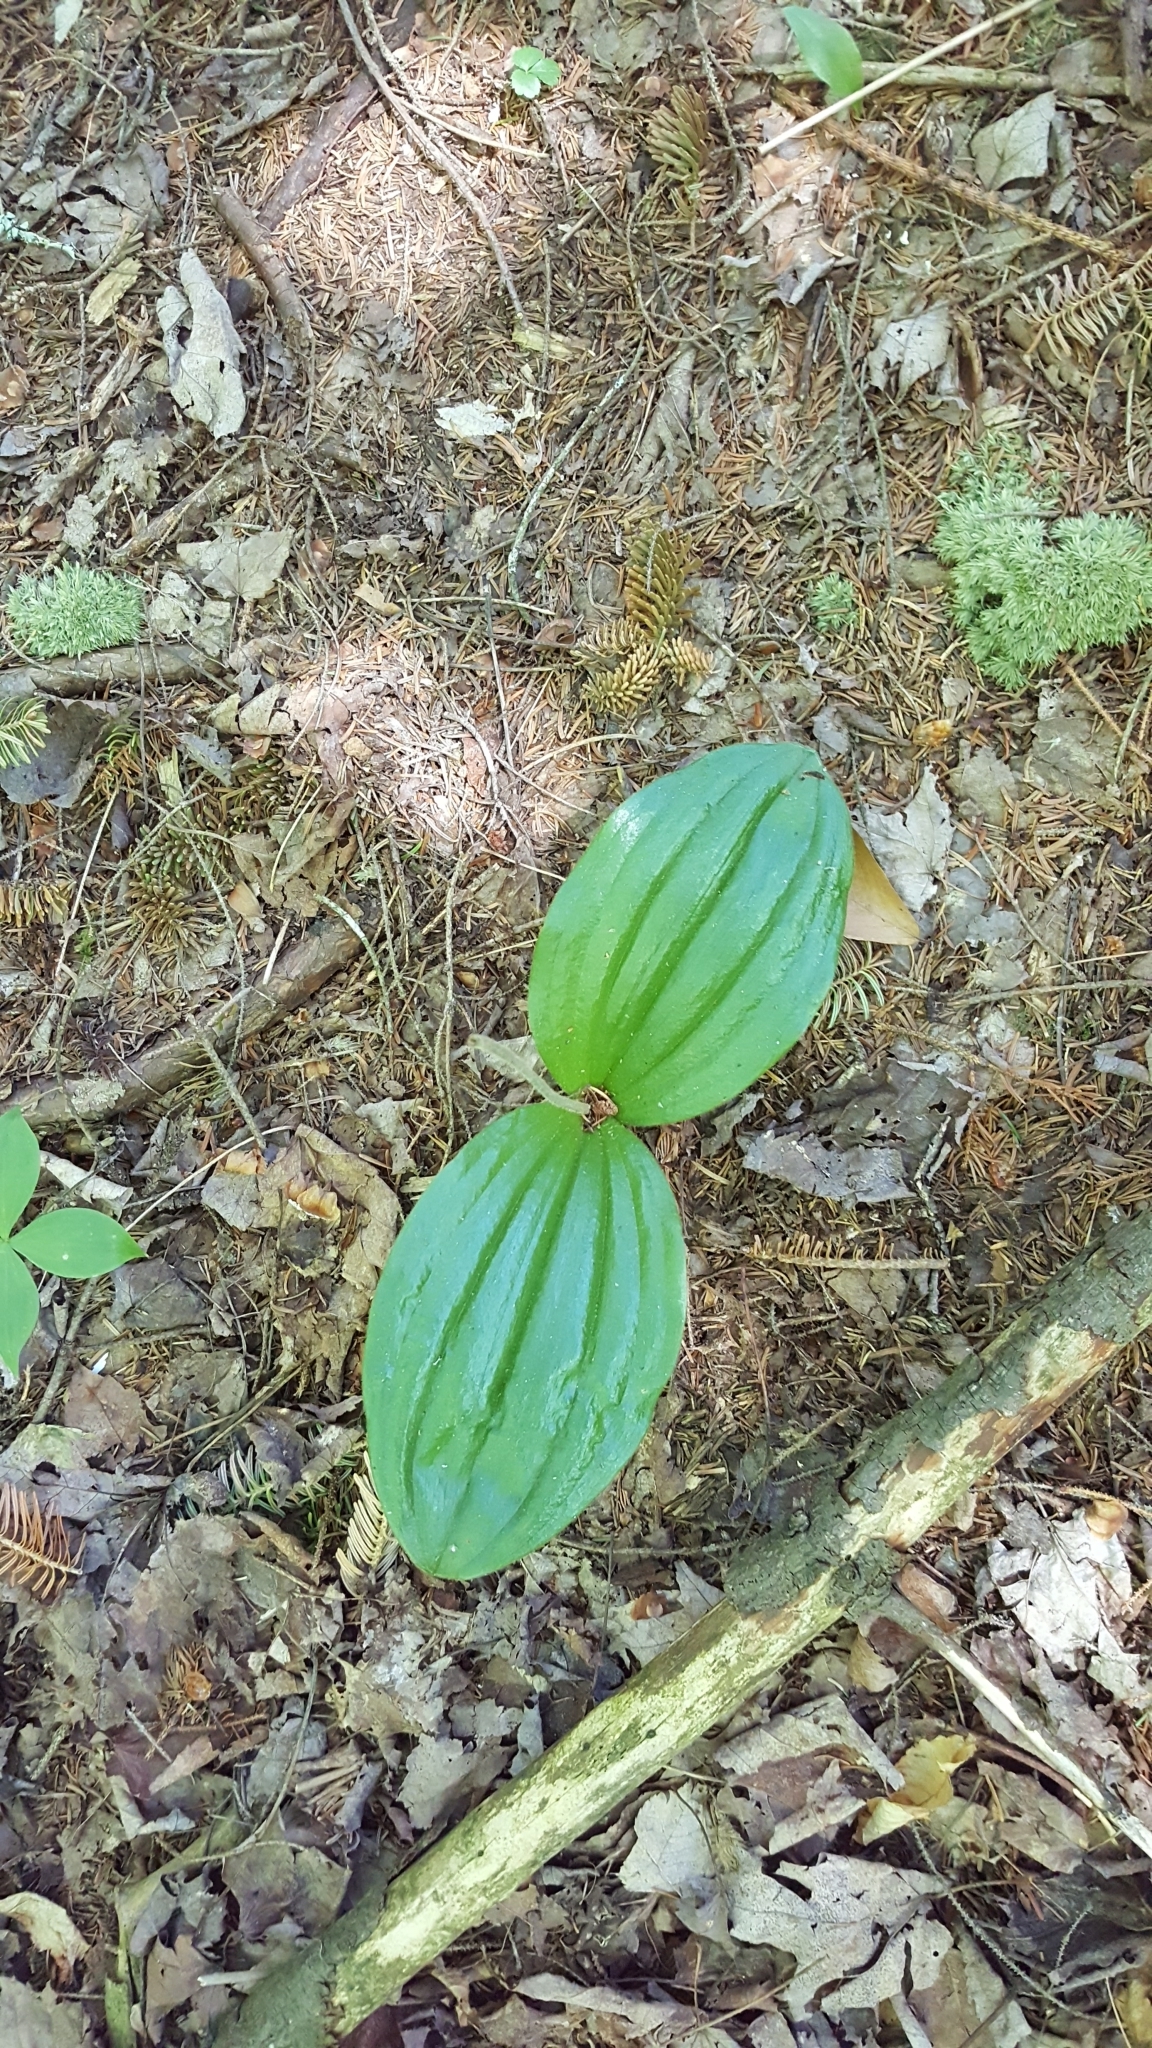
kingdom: Plantae
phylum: Tracheophyta
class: Liliopsida
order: Asparagales
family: Orchidaceae
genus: Cypripedium
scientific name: Cypripedium acaule
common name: Pink lady's-slipper
